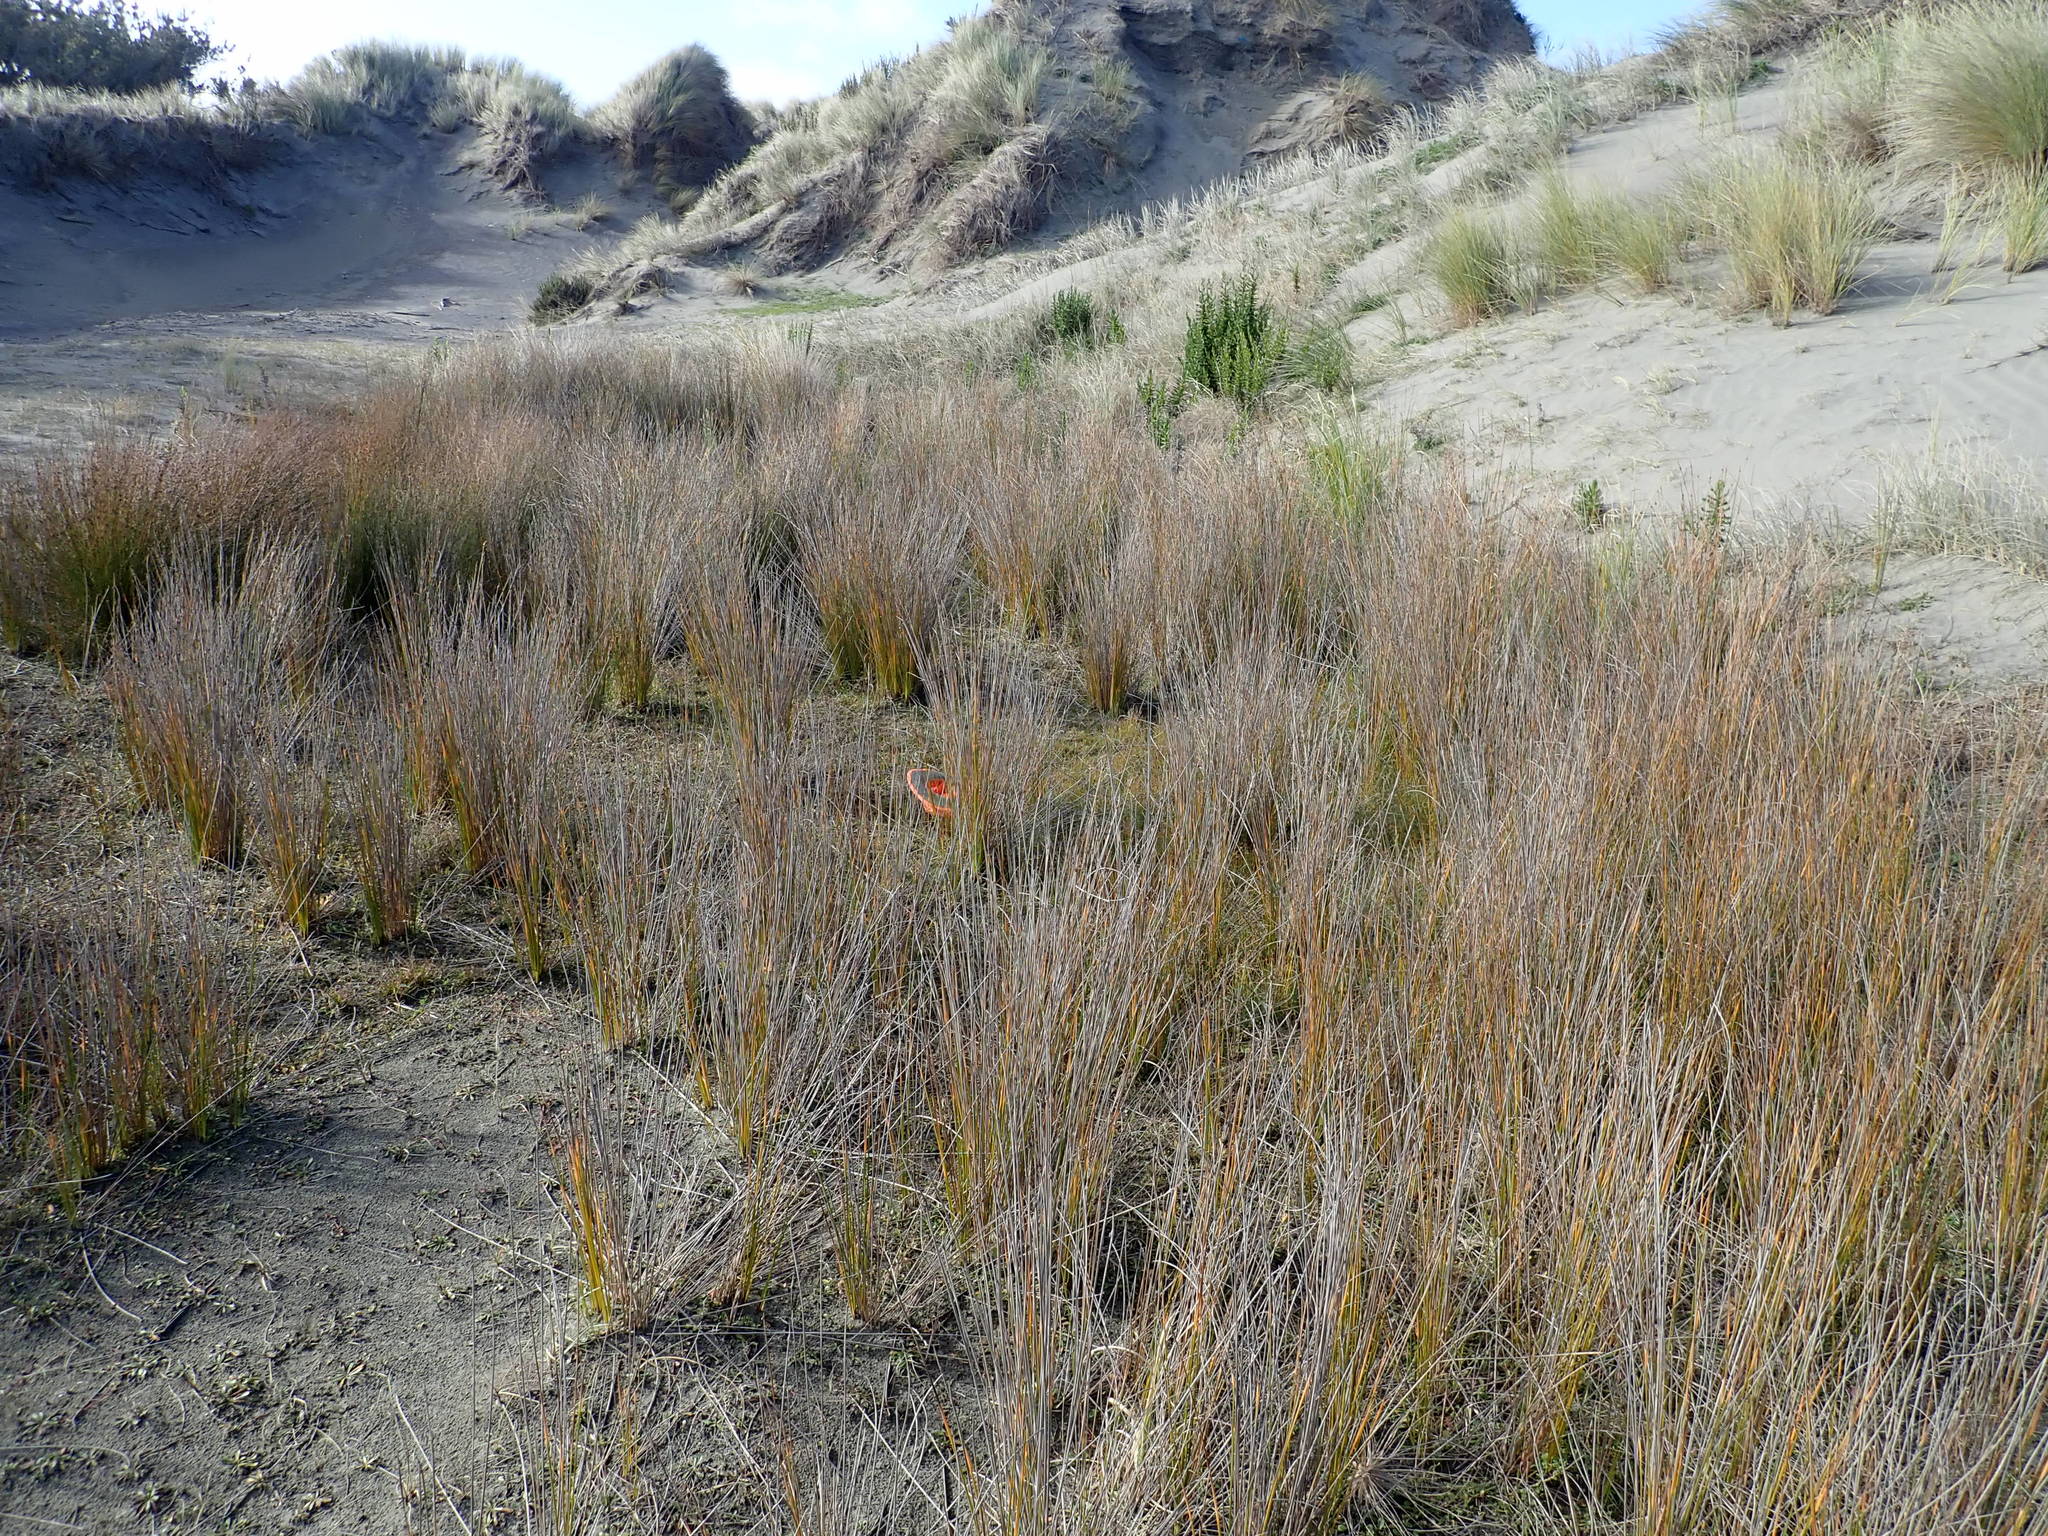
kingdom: Plantae
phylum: Tracheophyta
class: Liliopsida
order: Poales
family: Cyperaceae
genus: Schoenus
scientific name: Schoenus nitens
